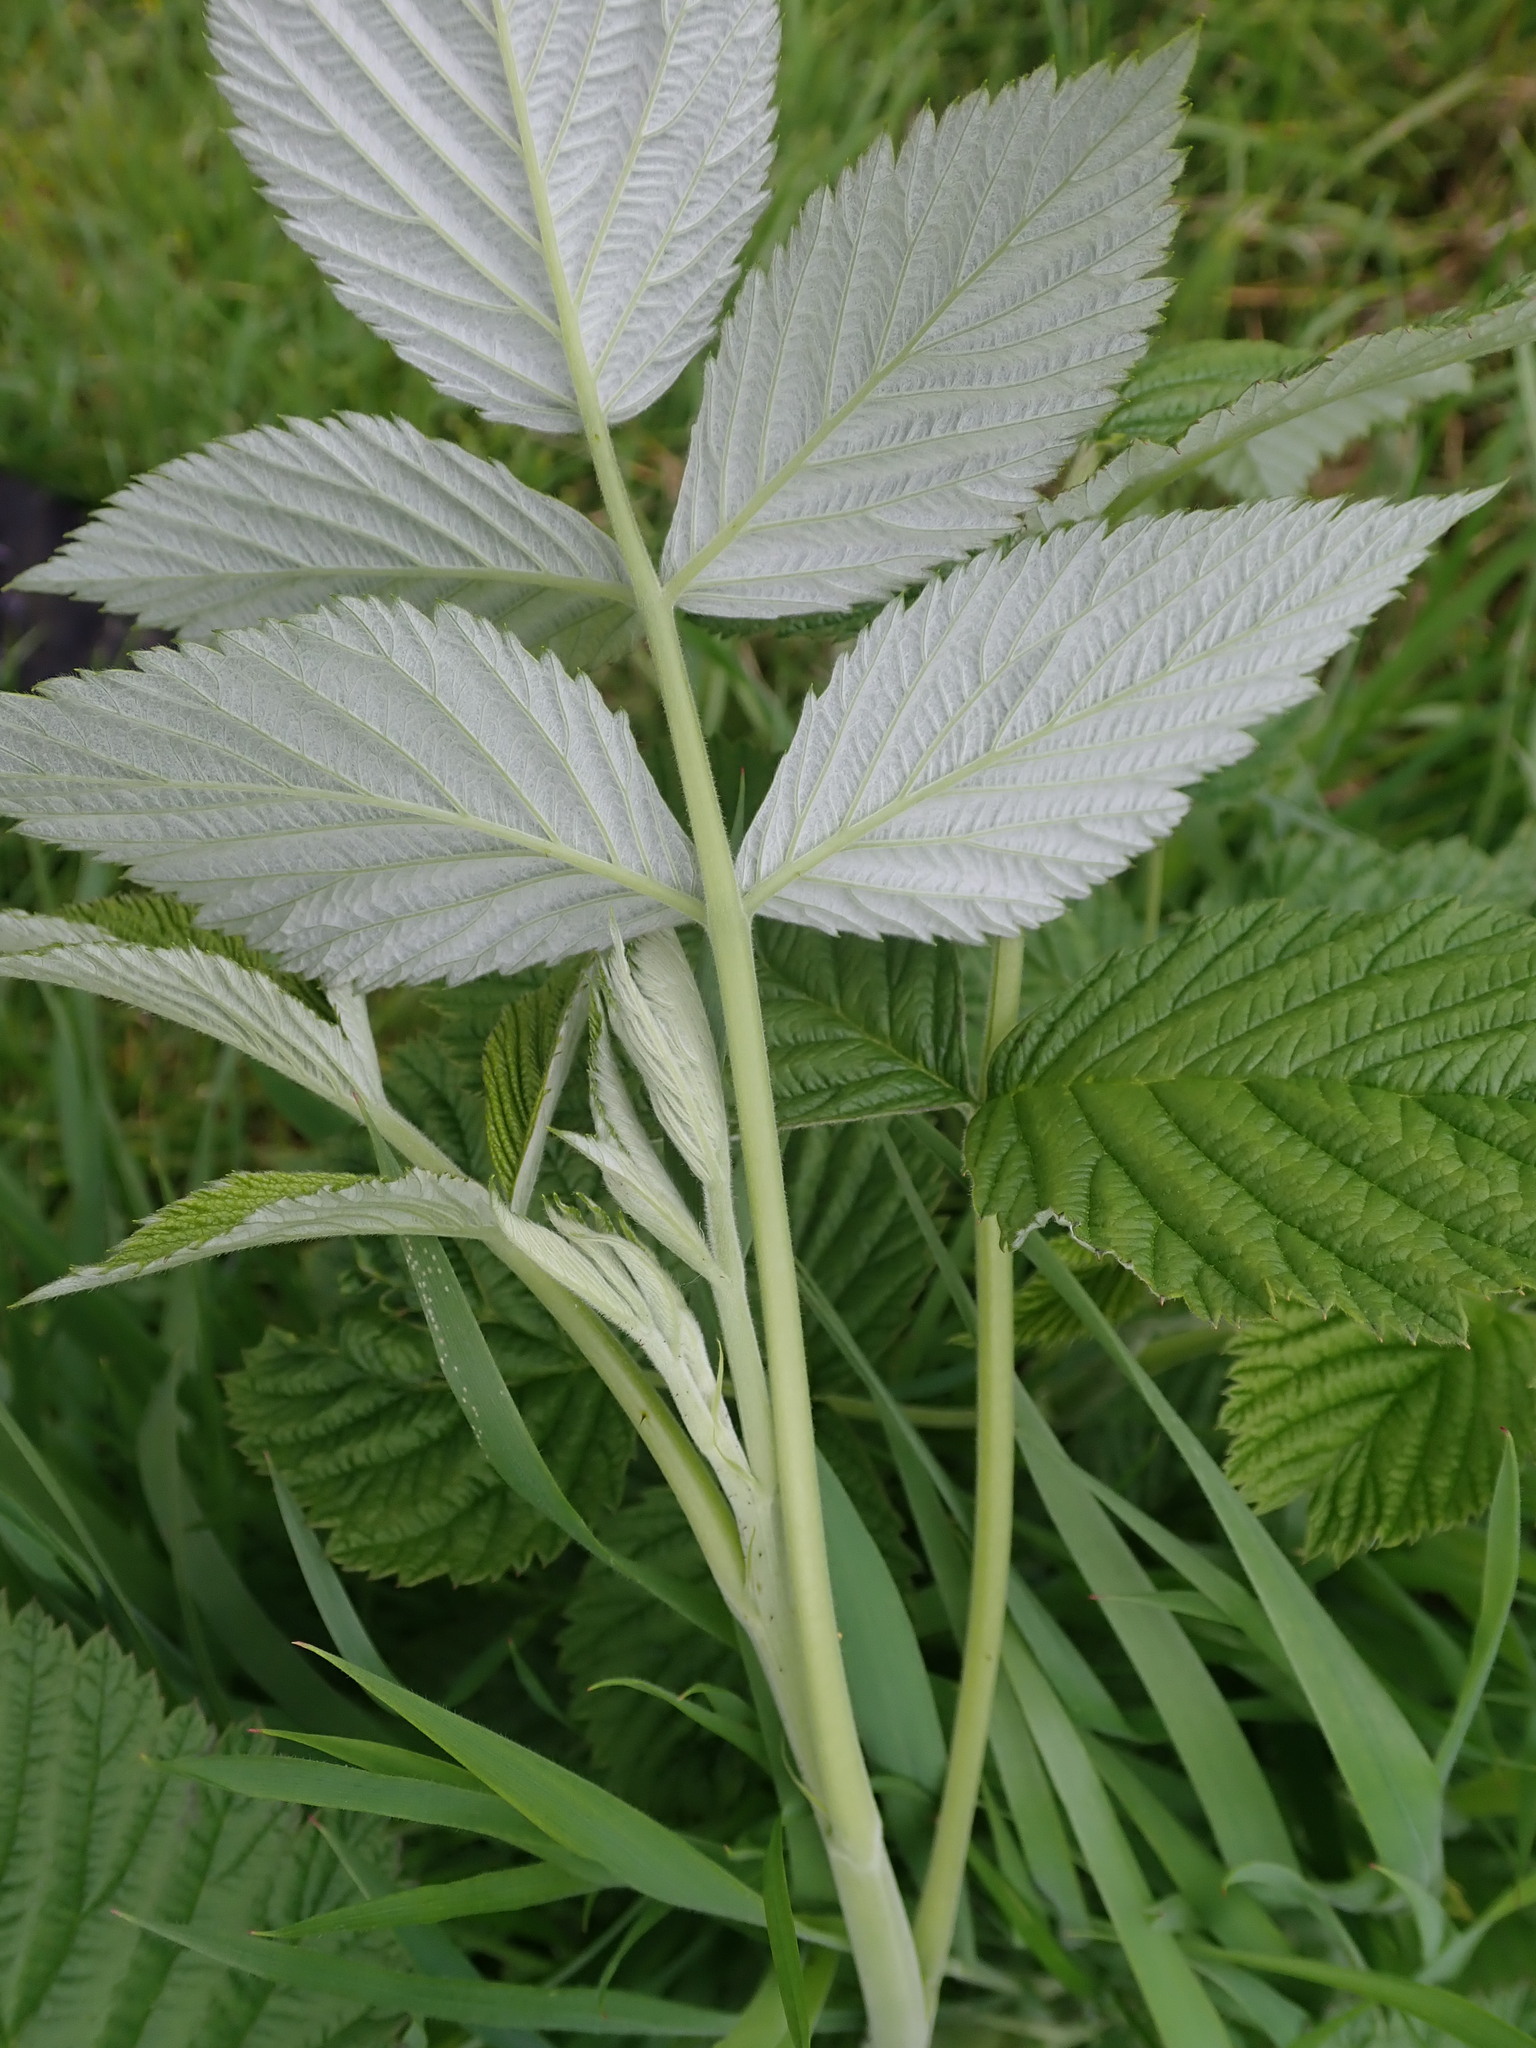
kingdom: Plantae
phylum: Tracheophyta
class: Magnoliopsida
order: Rosales
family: Rosaceae
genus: Rubus
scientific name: Rubus idaeus
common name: Raspberry
